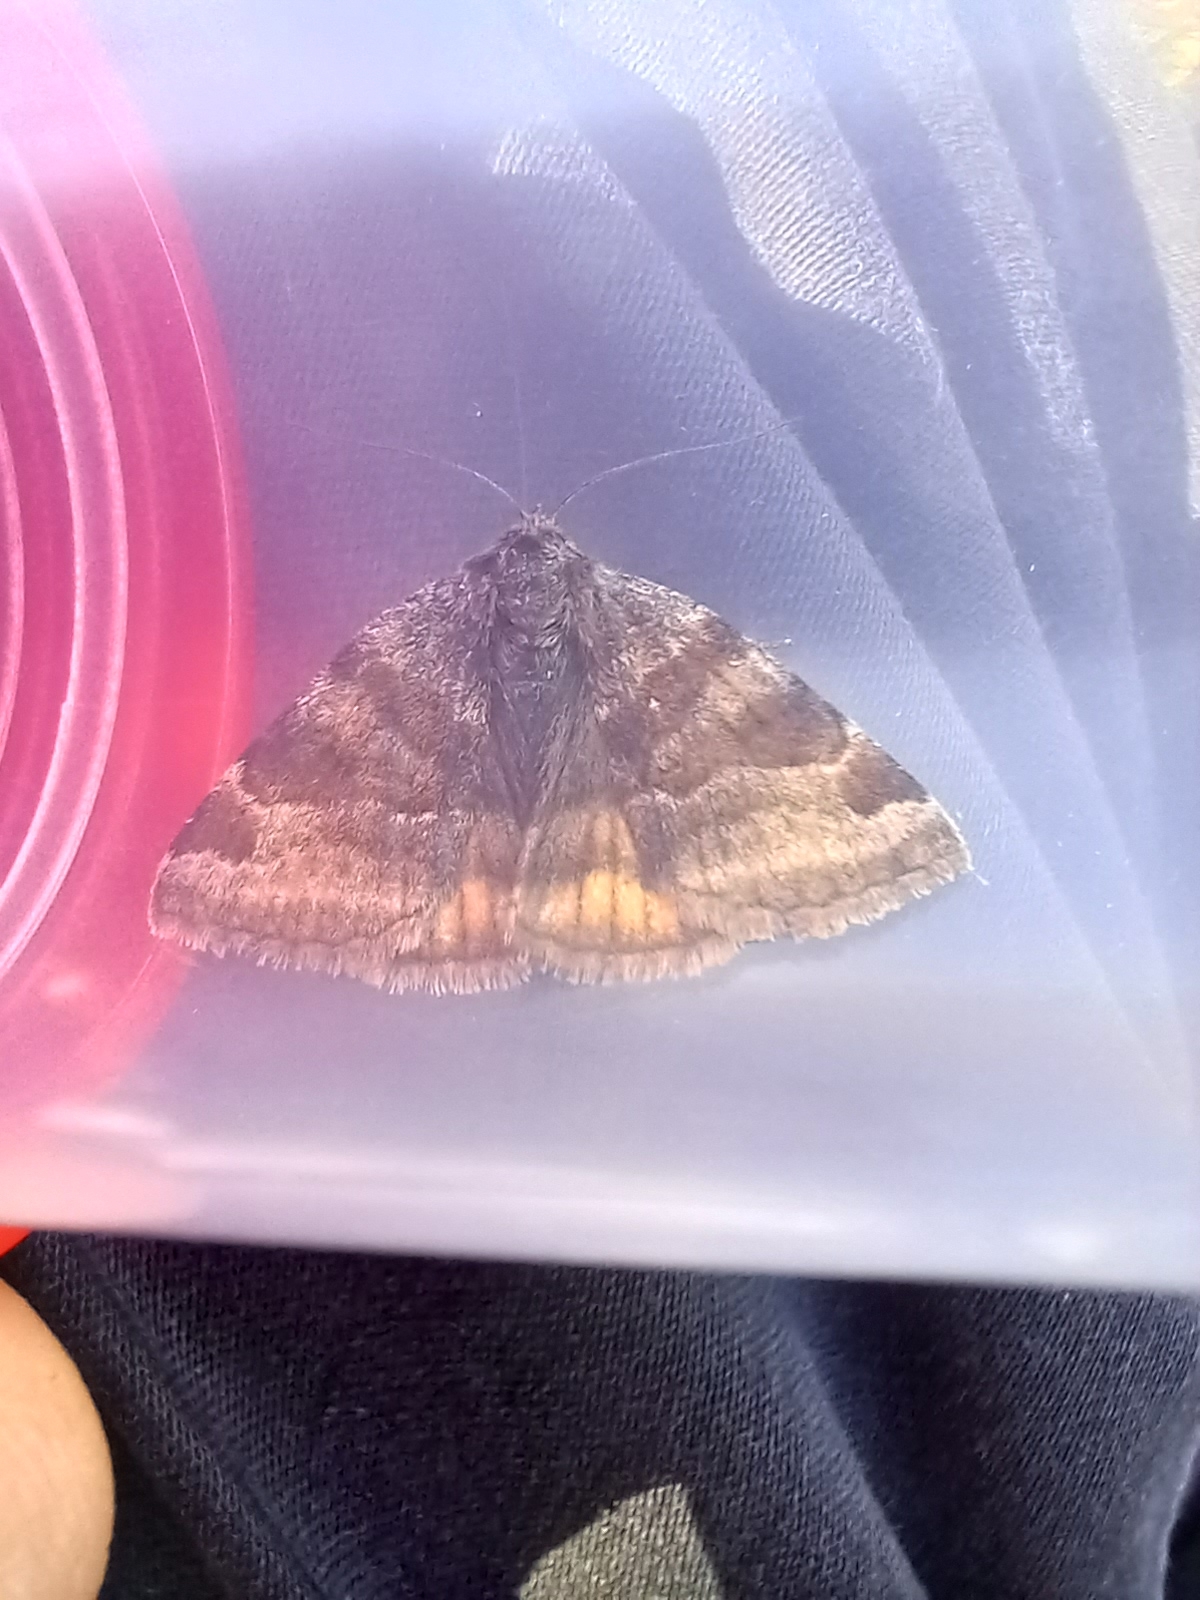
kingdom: Animalia
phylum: Arthropoda
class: Insecta
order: Lepidoptera
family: Erebidae
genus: Euclidia
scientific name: Euclidia glyphica
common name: Burnet companion
